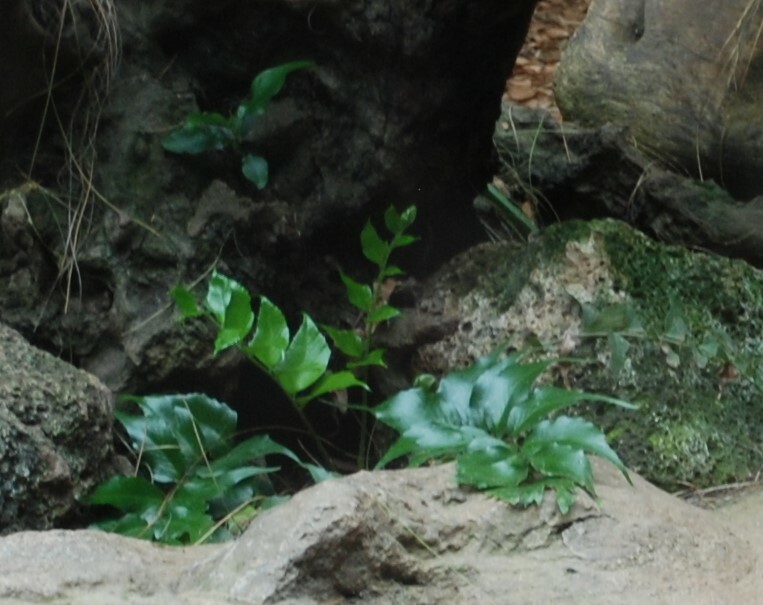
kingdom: Plantae
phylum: Tracheophyta
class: Polypodiopsida
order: Polypodiales
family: Dryopteridaceae
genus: Cyrtomium
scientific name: Cyrtomium falcatum
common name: House holly-fern
